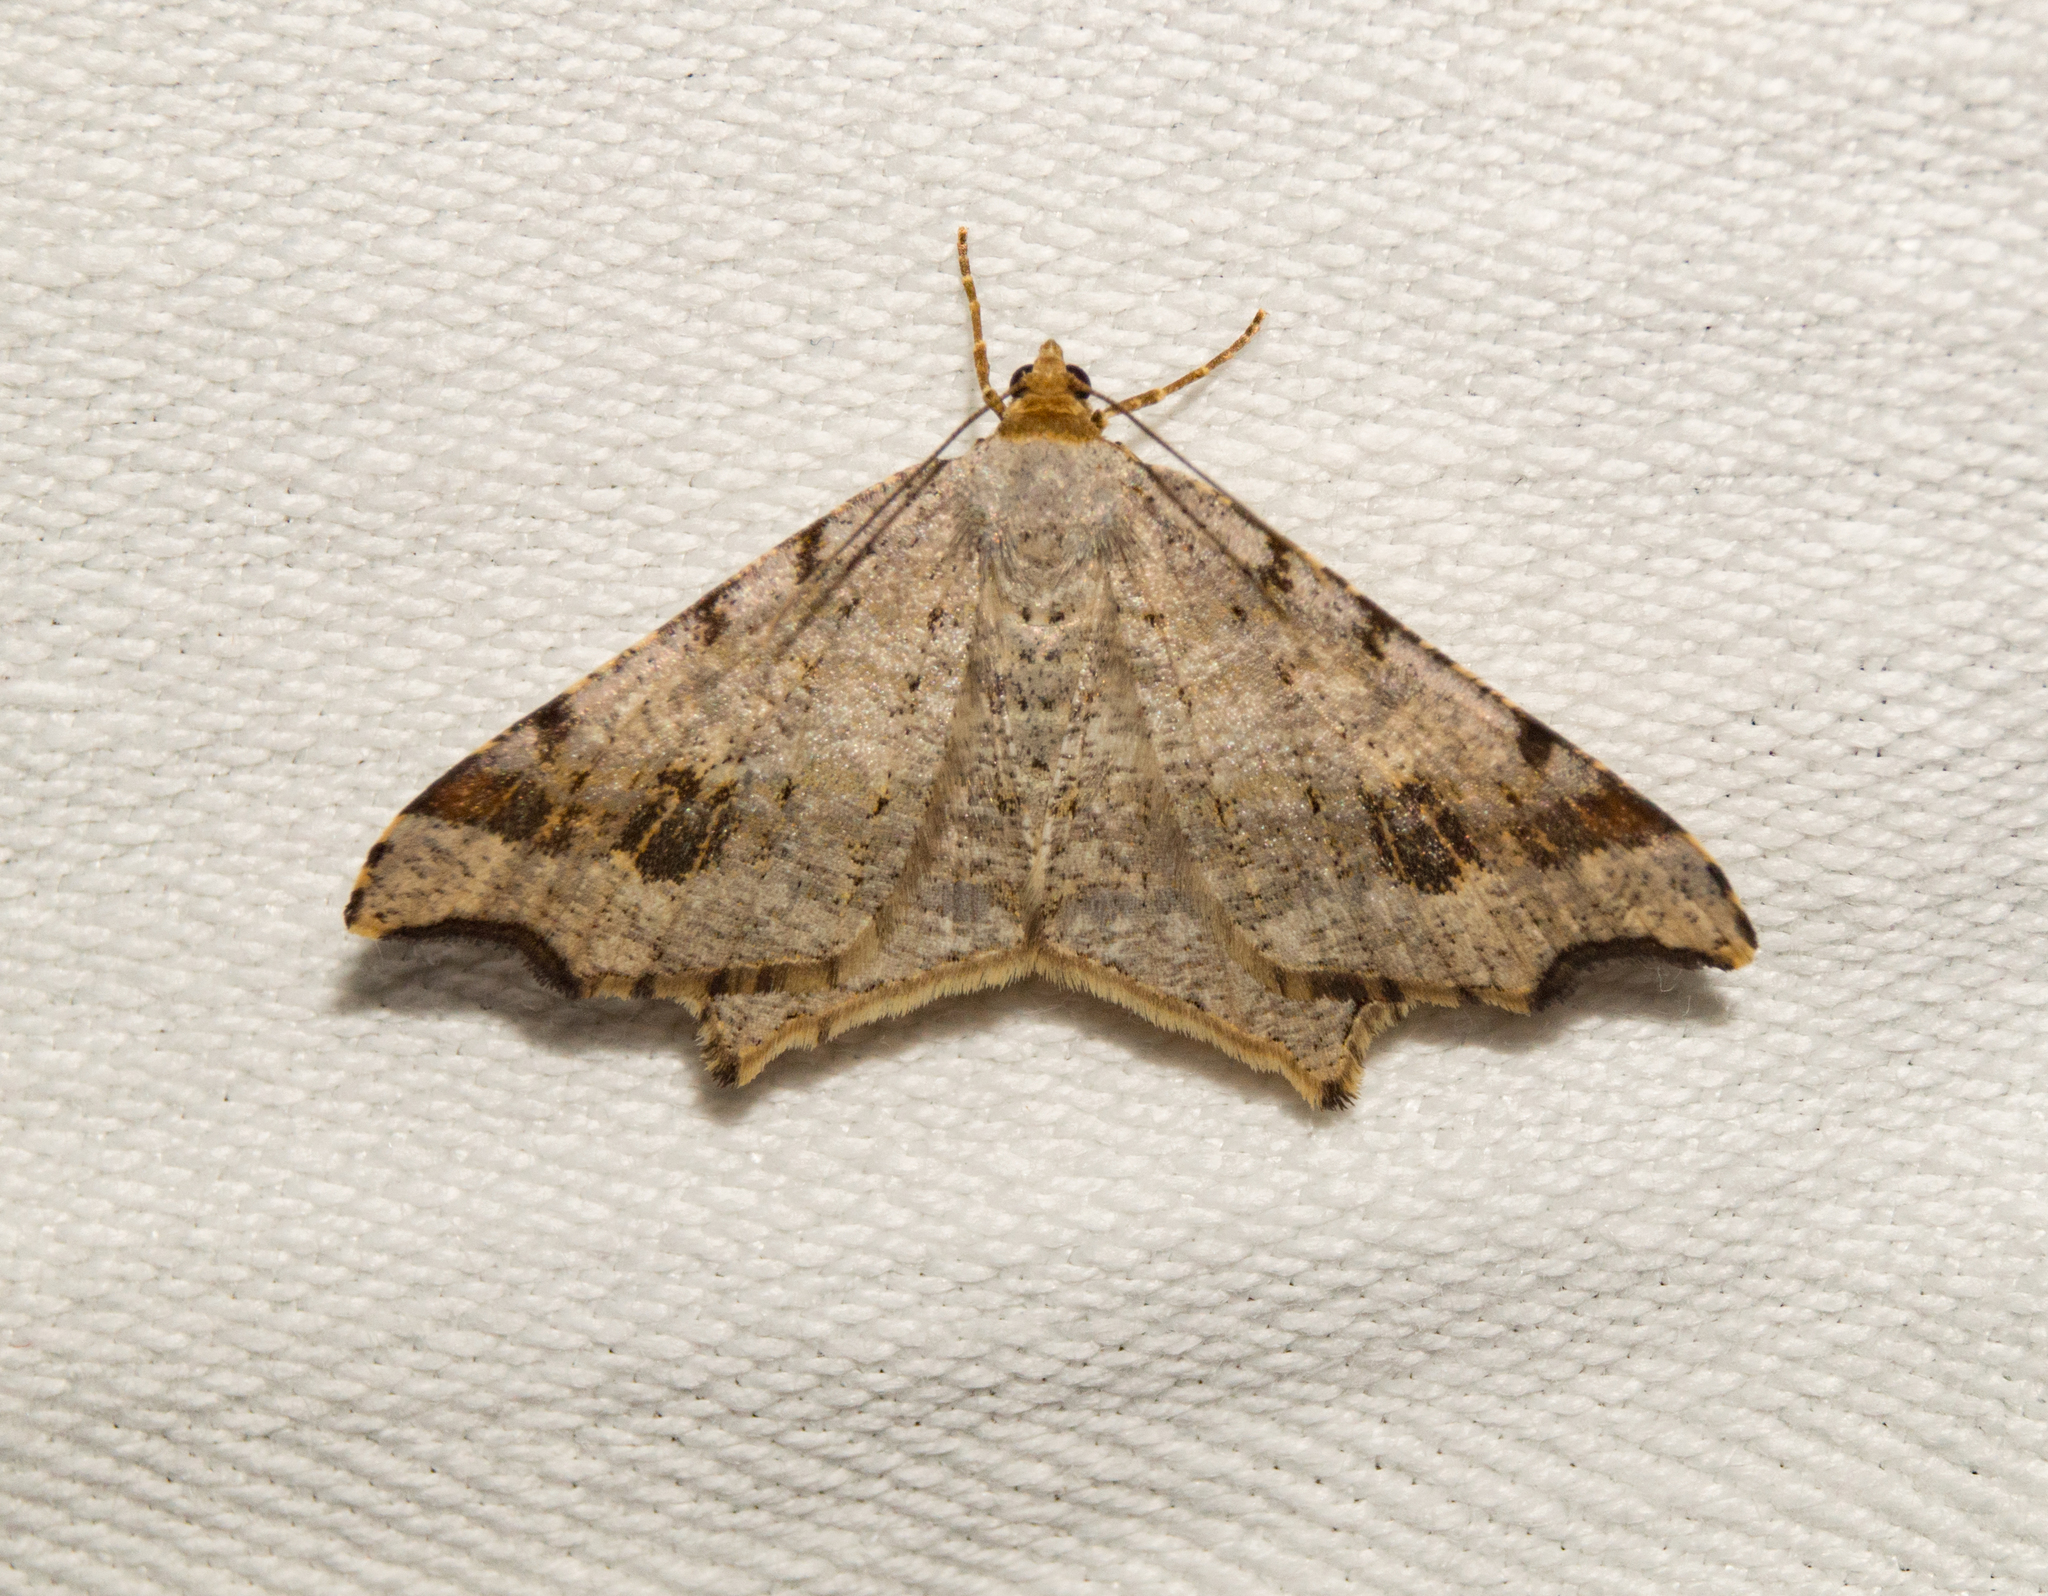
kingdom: Animalia
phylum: Arthropoda
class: Insecta
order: Lepidoptera
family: Geometridae
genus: Macaria
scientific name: Macaria alternata
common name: Sharp-angled peacock
